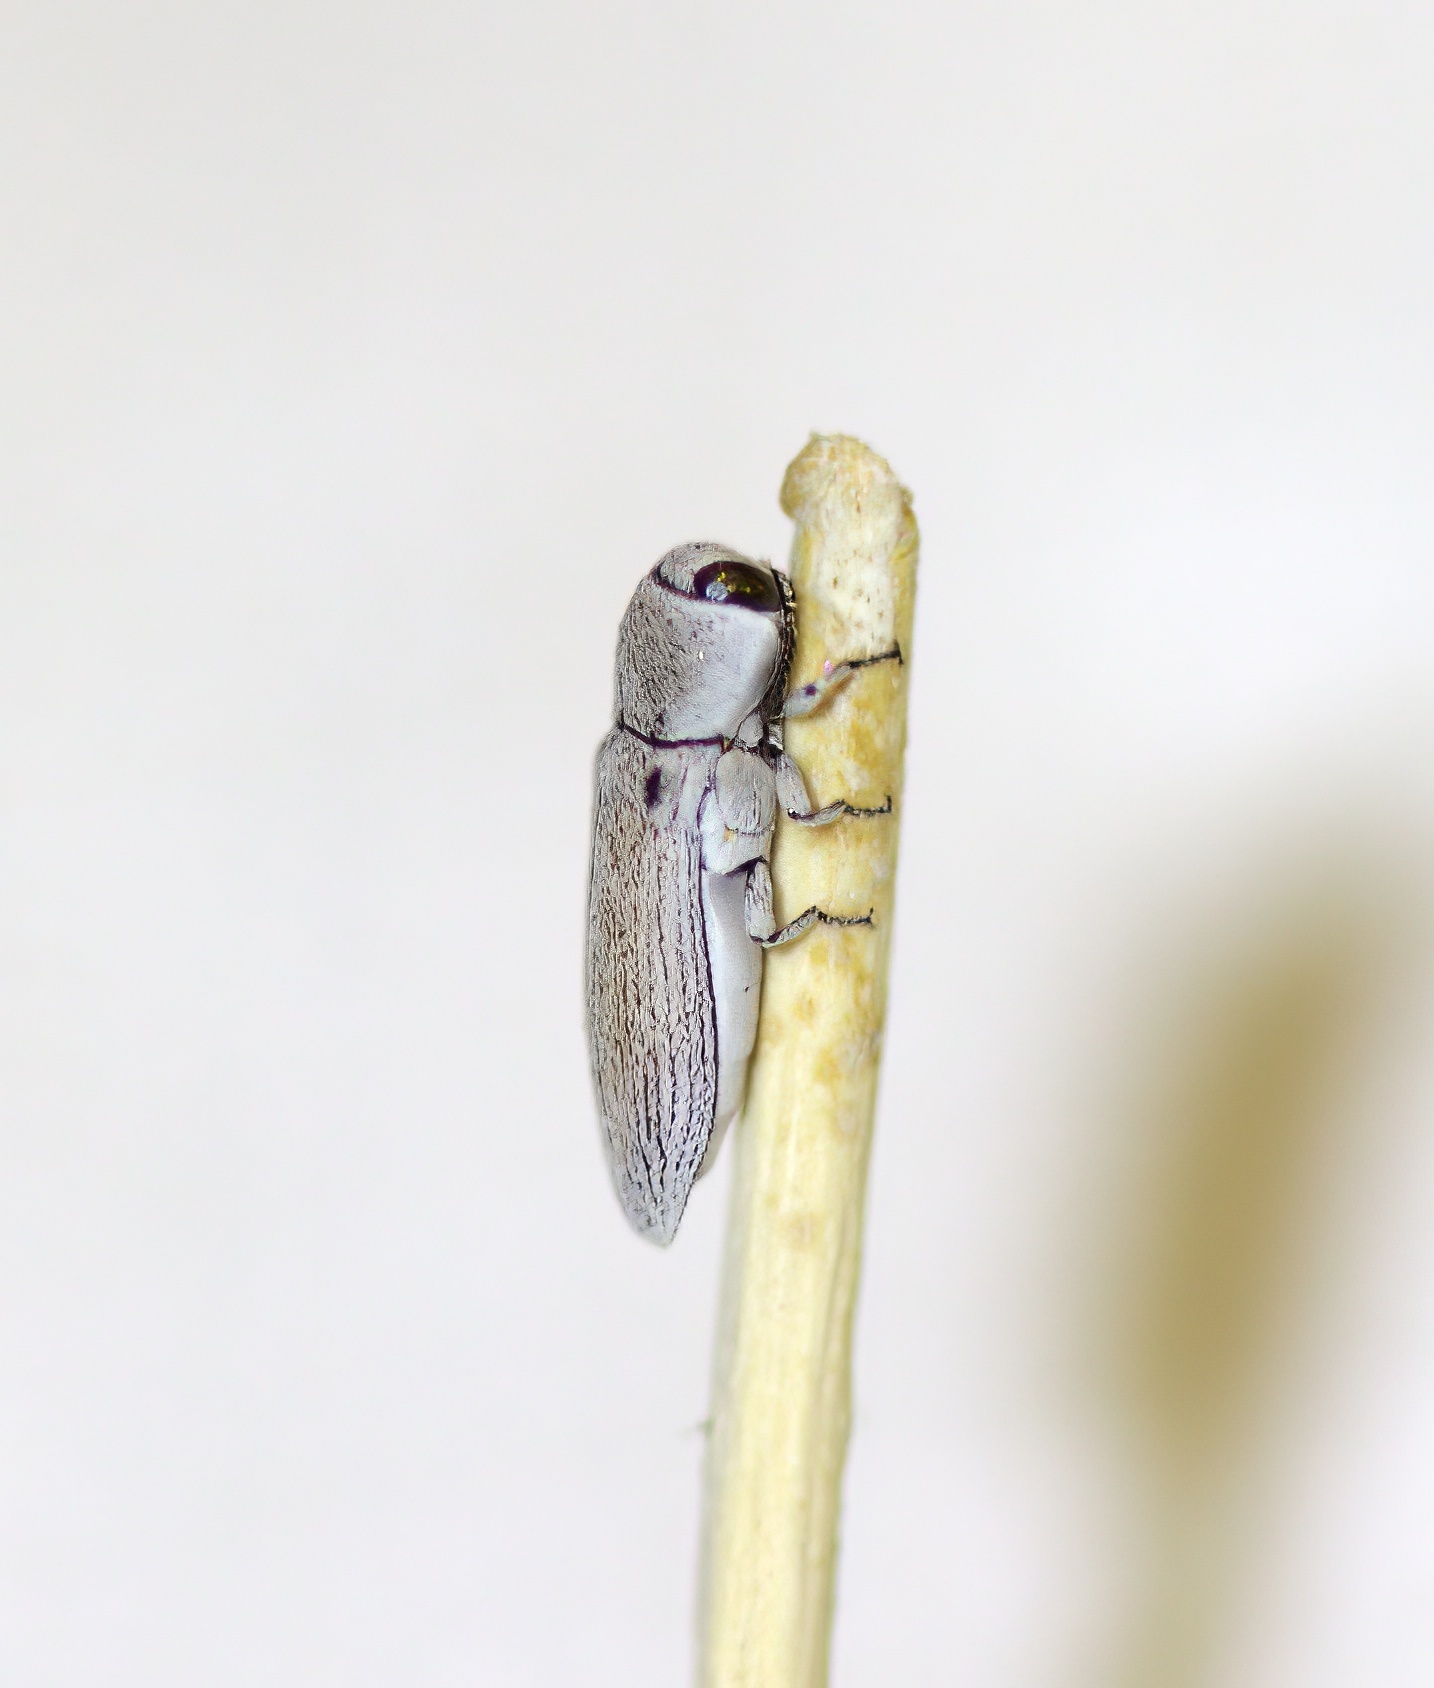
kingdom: Animalia
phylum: Arthropoda
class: Insecta
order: Coleoptera
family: Buprestidae
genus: Acmaeodera
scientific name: Acmaeodera barri
